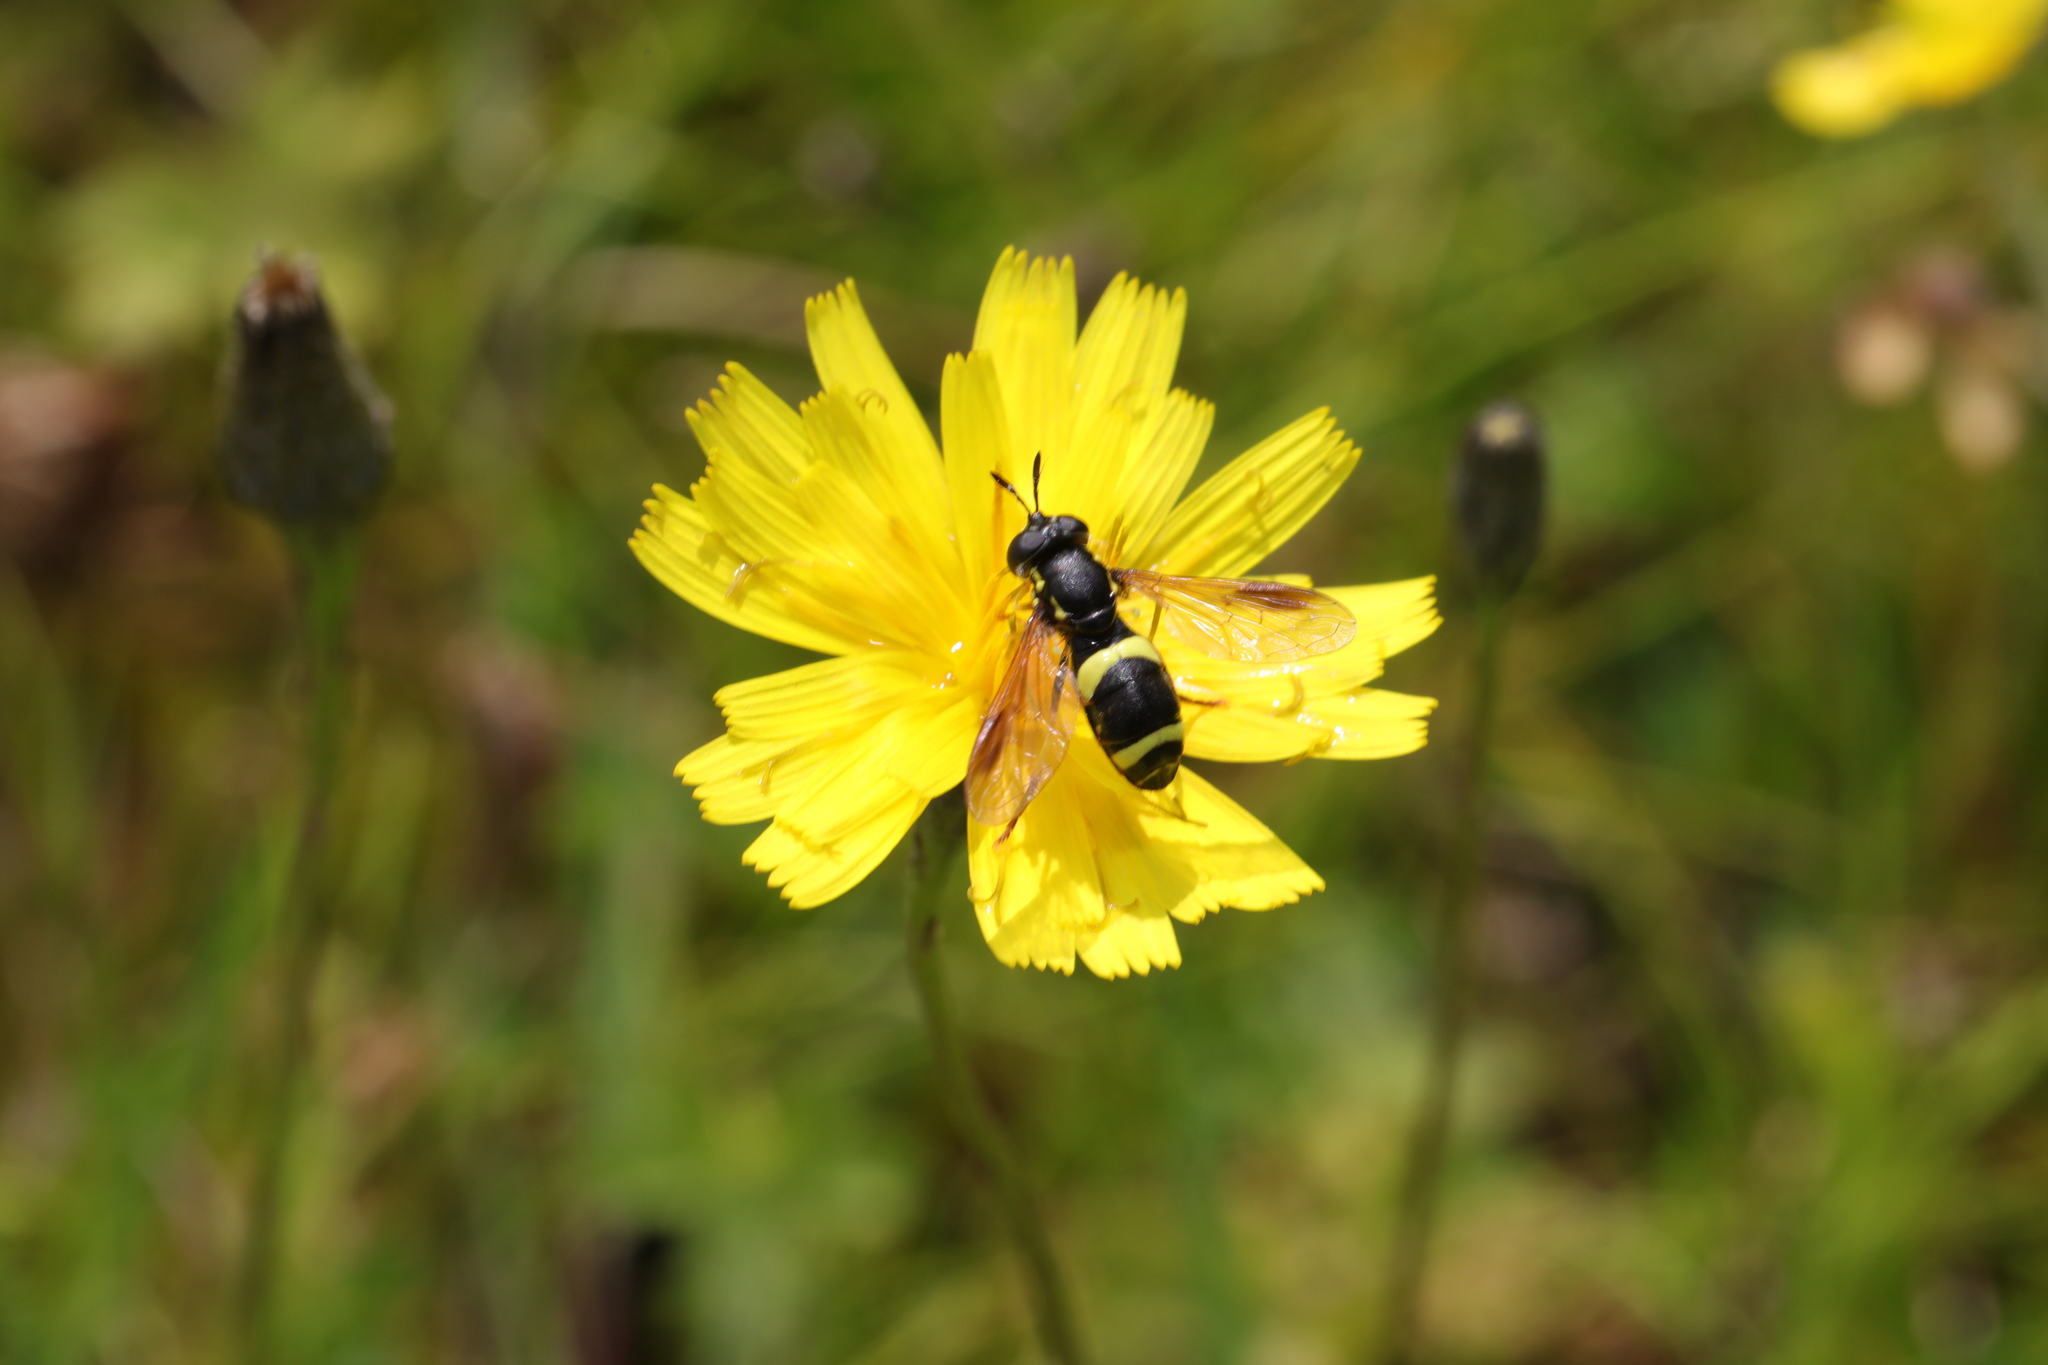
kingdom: Animalia
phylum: Arthropoda
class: Insecta
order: Diptera
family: Syrphidae
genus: Chrysotoxum
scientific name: Chrysotoxum bicincta
